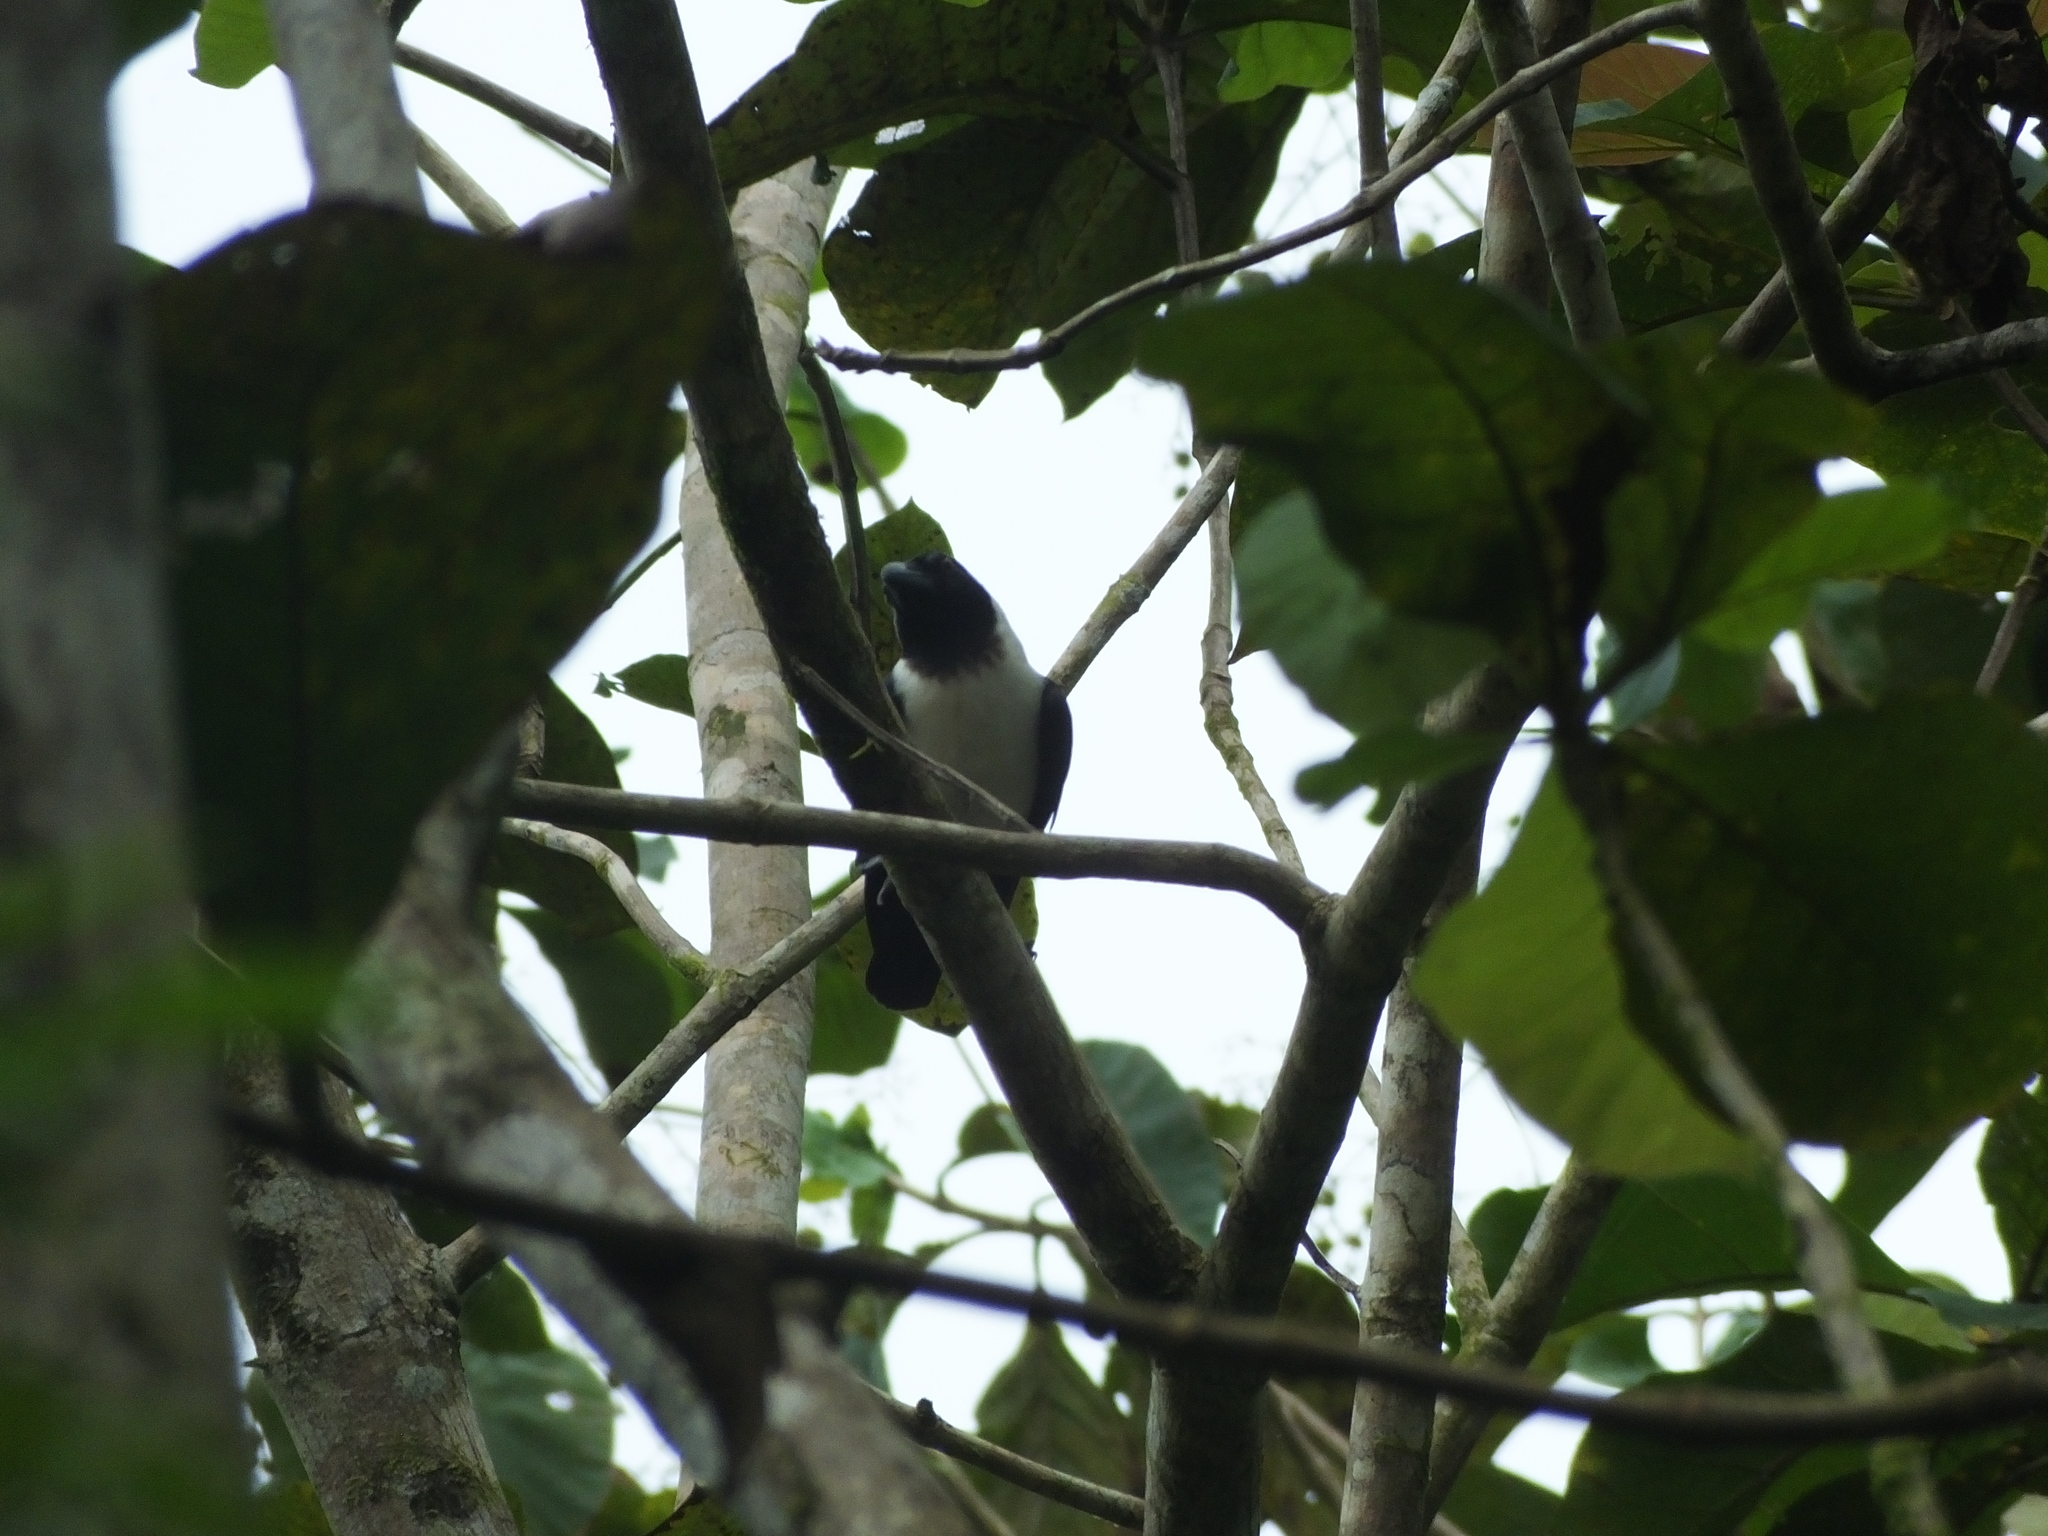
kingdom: Animalia
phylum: Chordata
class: Aves
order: Passeriformes
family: Corvidae
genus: Corvus
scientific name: Corvus typicus
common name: Piping crow
